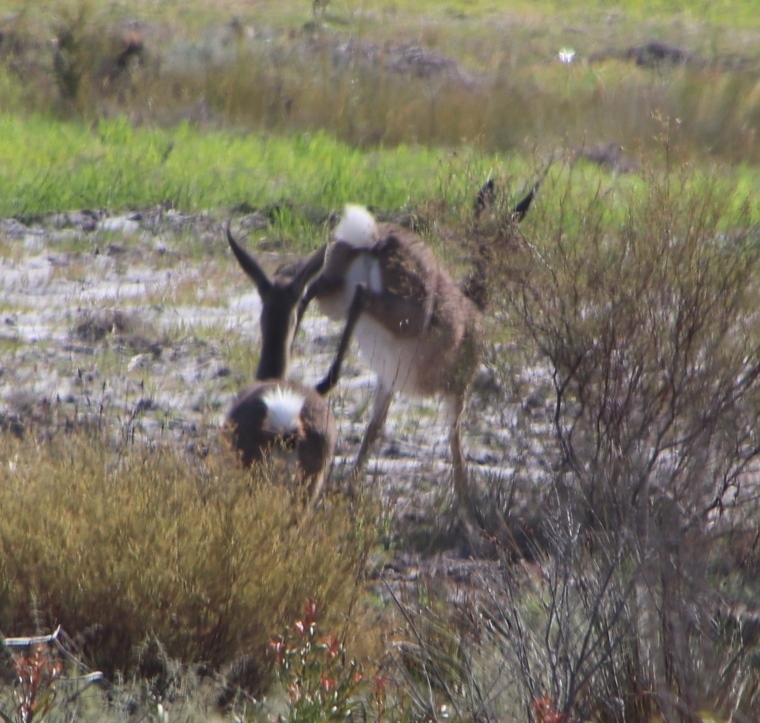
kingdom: Animalia
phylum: Chordata
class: Mammalia
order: Artiodactyla
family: Bovidae
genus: Pelea
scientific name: Pelea capreolus
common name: Common rhebok
